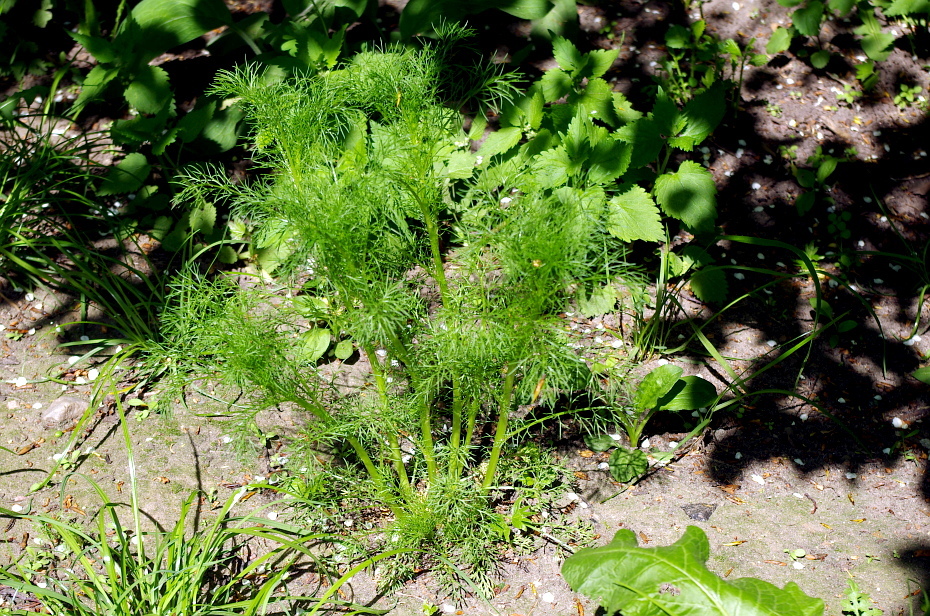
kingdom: Plantae
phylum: Tracheophyta
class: Magnoliopsida
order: Asterales
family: Asteraceae
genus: Tripleurospermum
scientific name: Tripleurospermum inodorum
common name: Scentless mayweed
